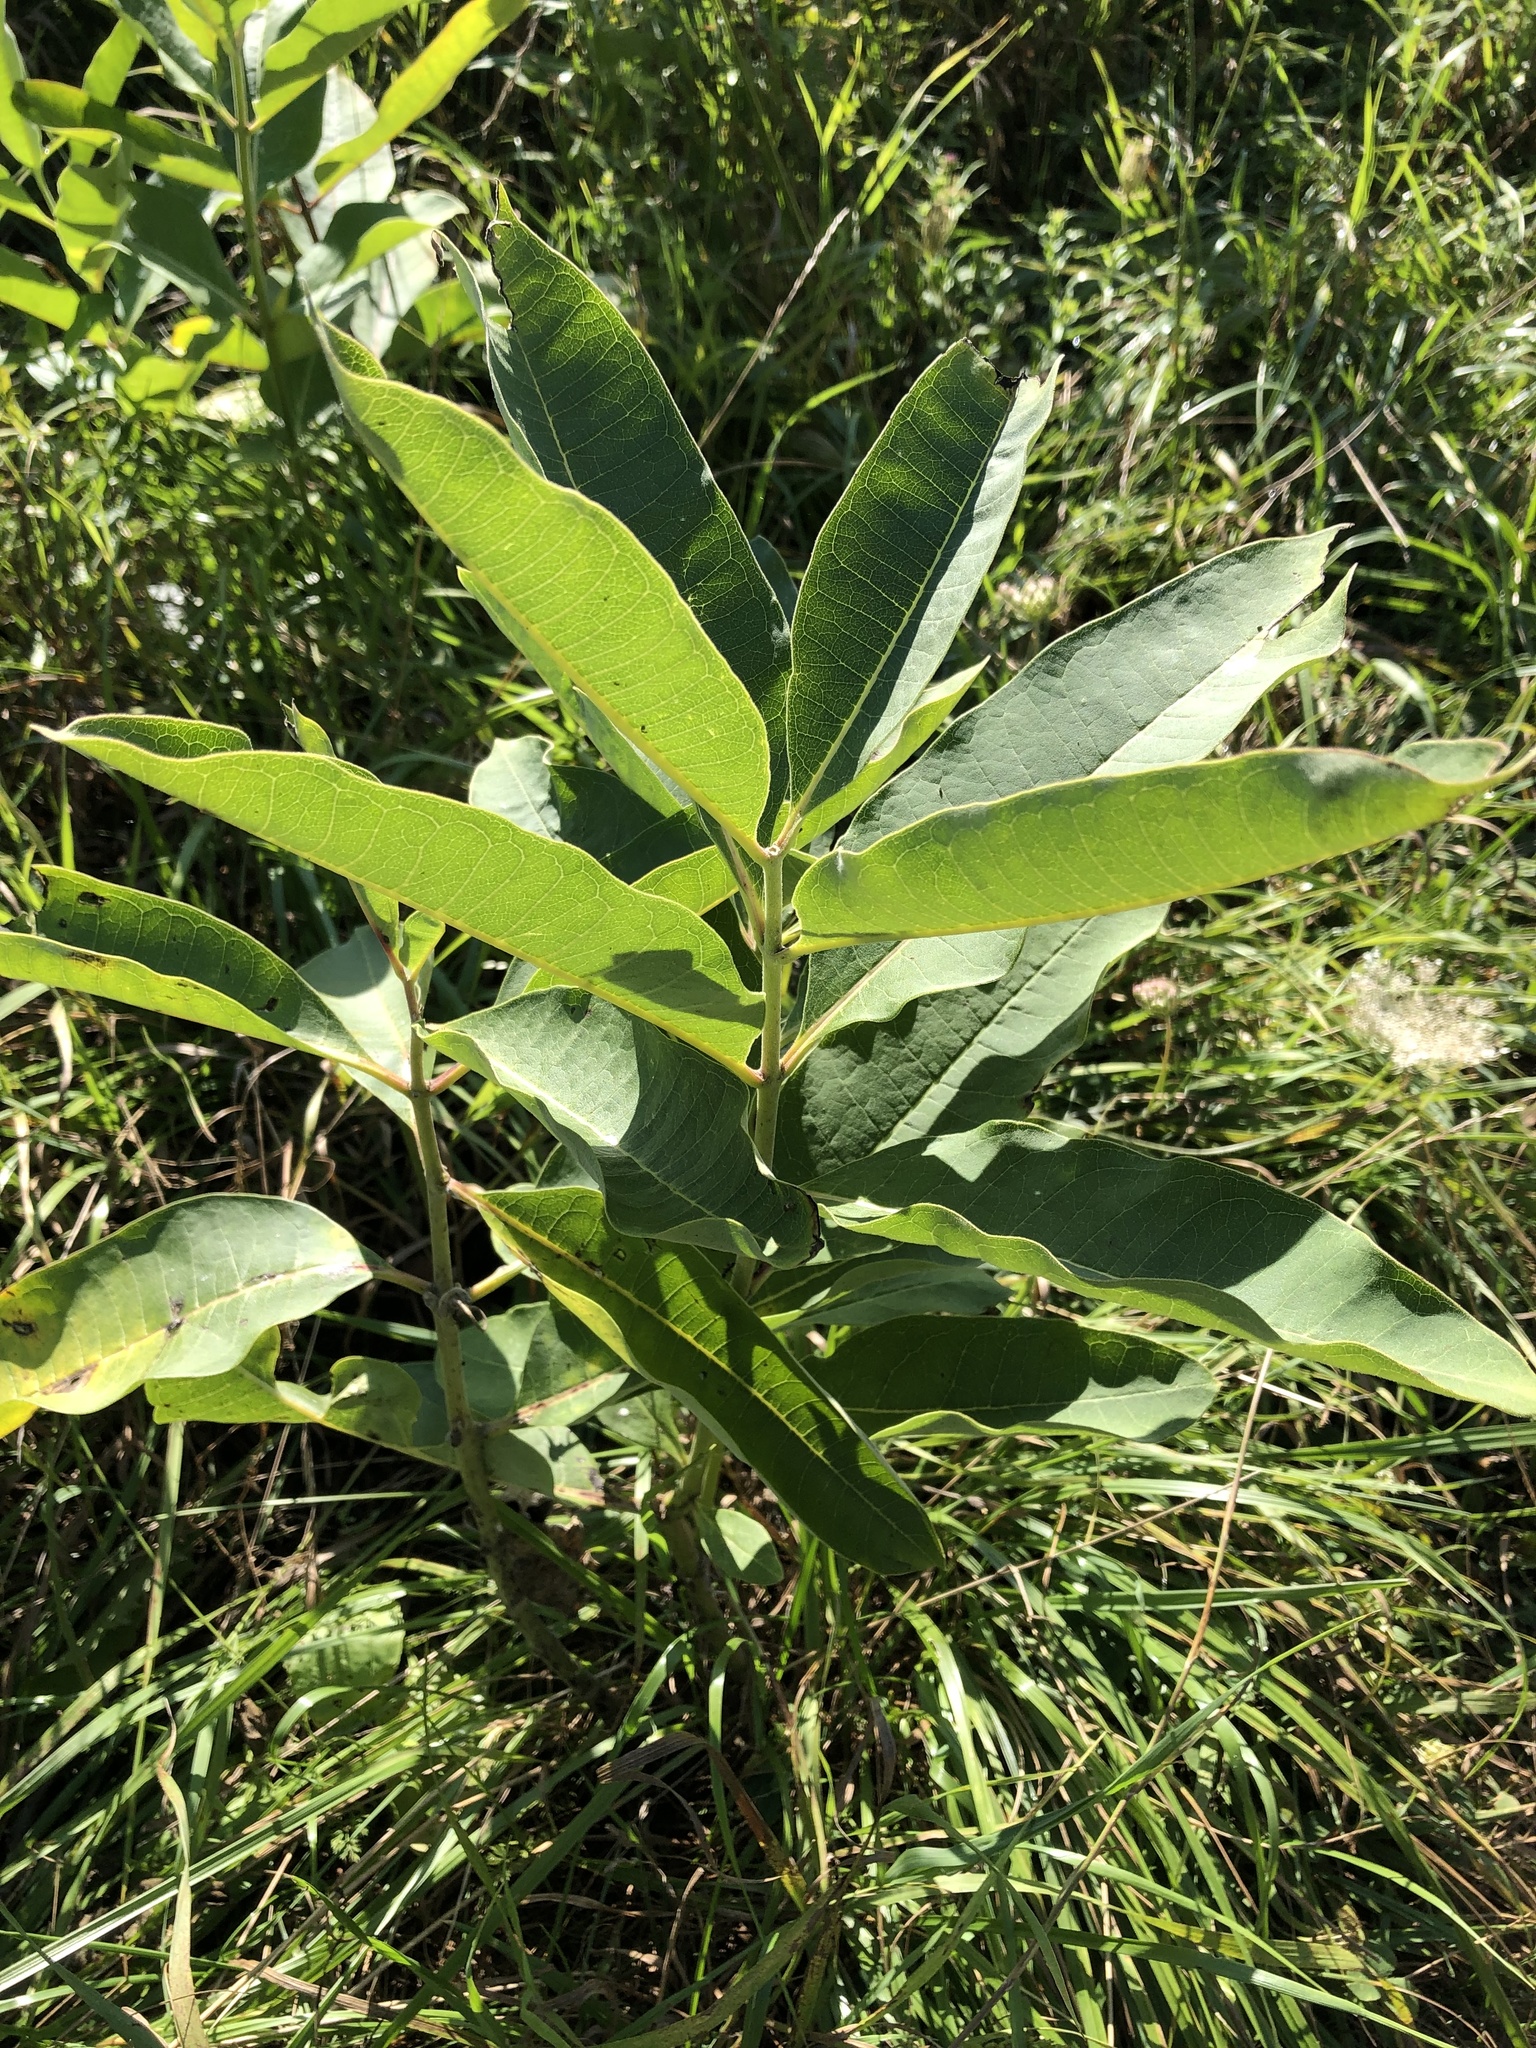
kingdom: Plantae
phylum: Tracheophyta
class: Magnoliopsida
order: Gentianales
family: Apocynaceae
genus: Asclepias
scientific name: Asclepias syriaca
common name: Common milkweed
